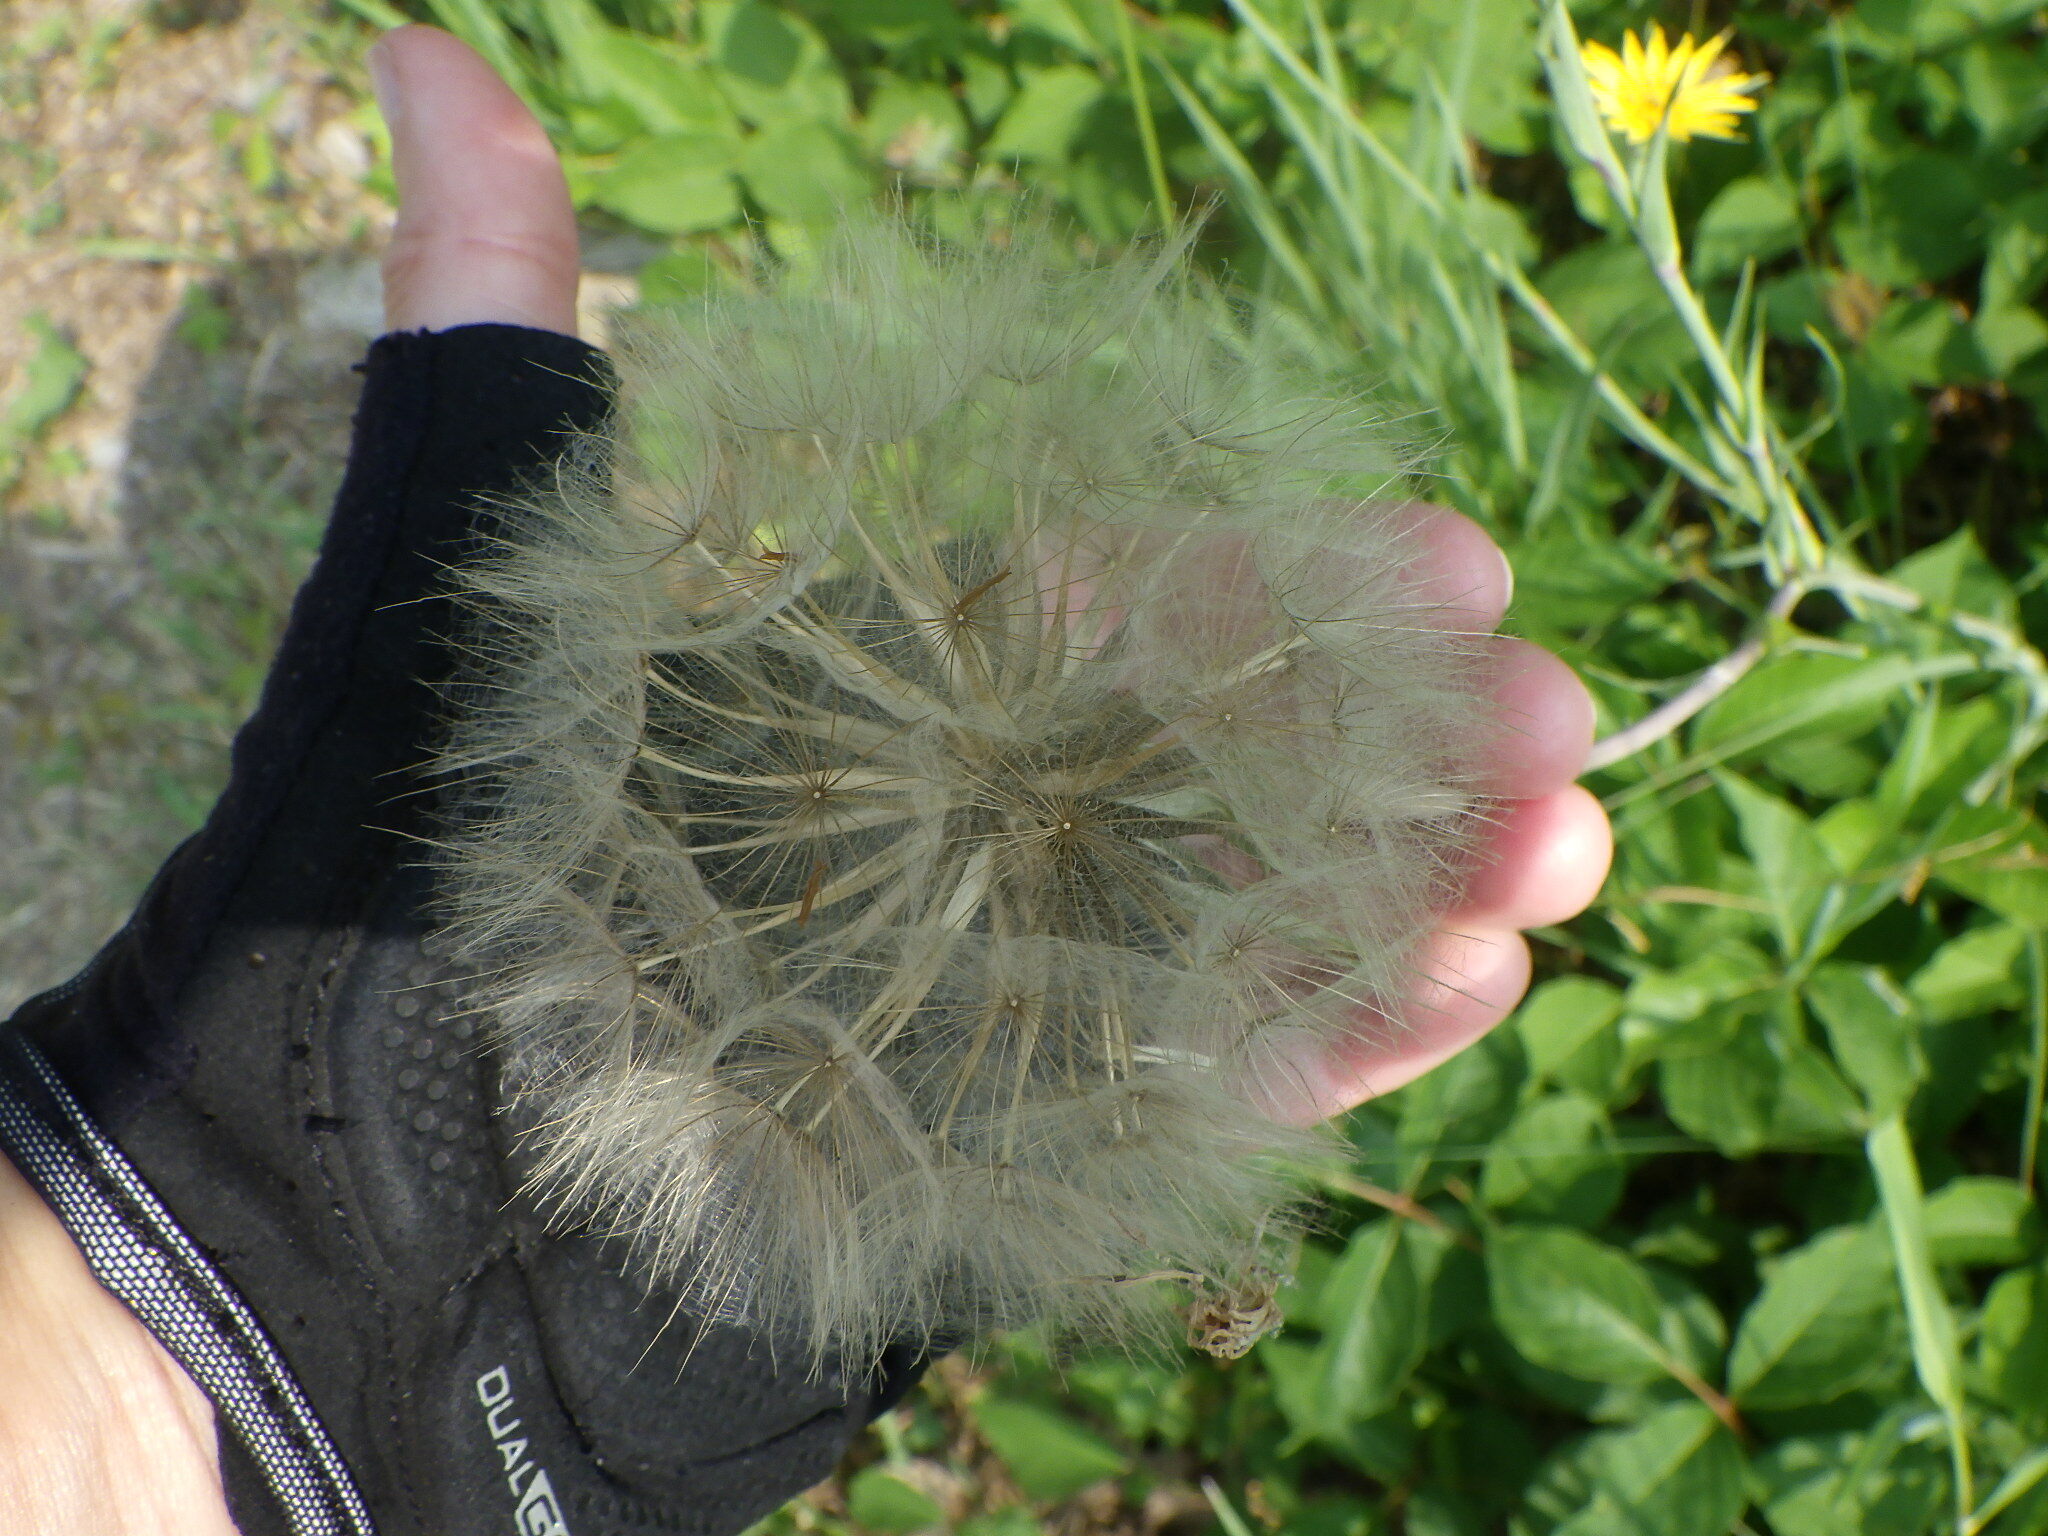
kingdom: Plantae
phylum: Tracheophyta
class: Magnoliopsida
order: Asterales
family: Asteraceae
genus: Tragopogon
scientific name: Tragopogon dubius
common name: Yellow salsify
